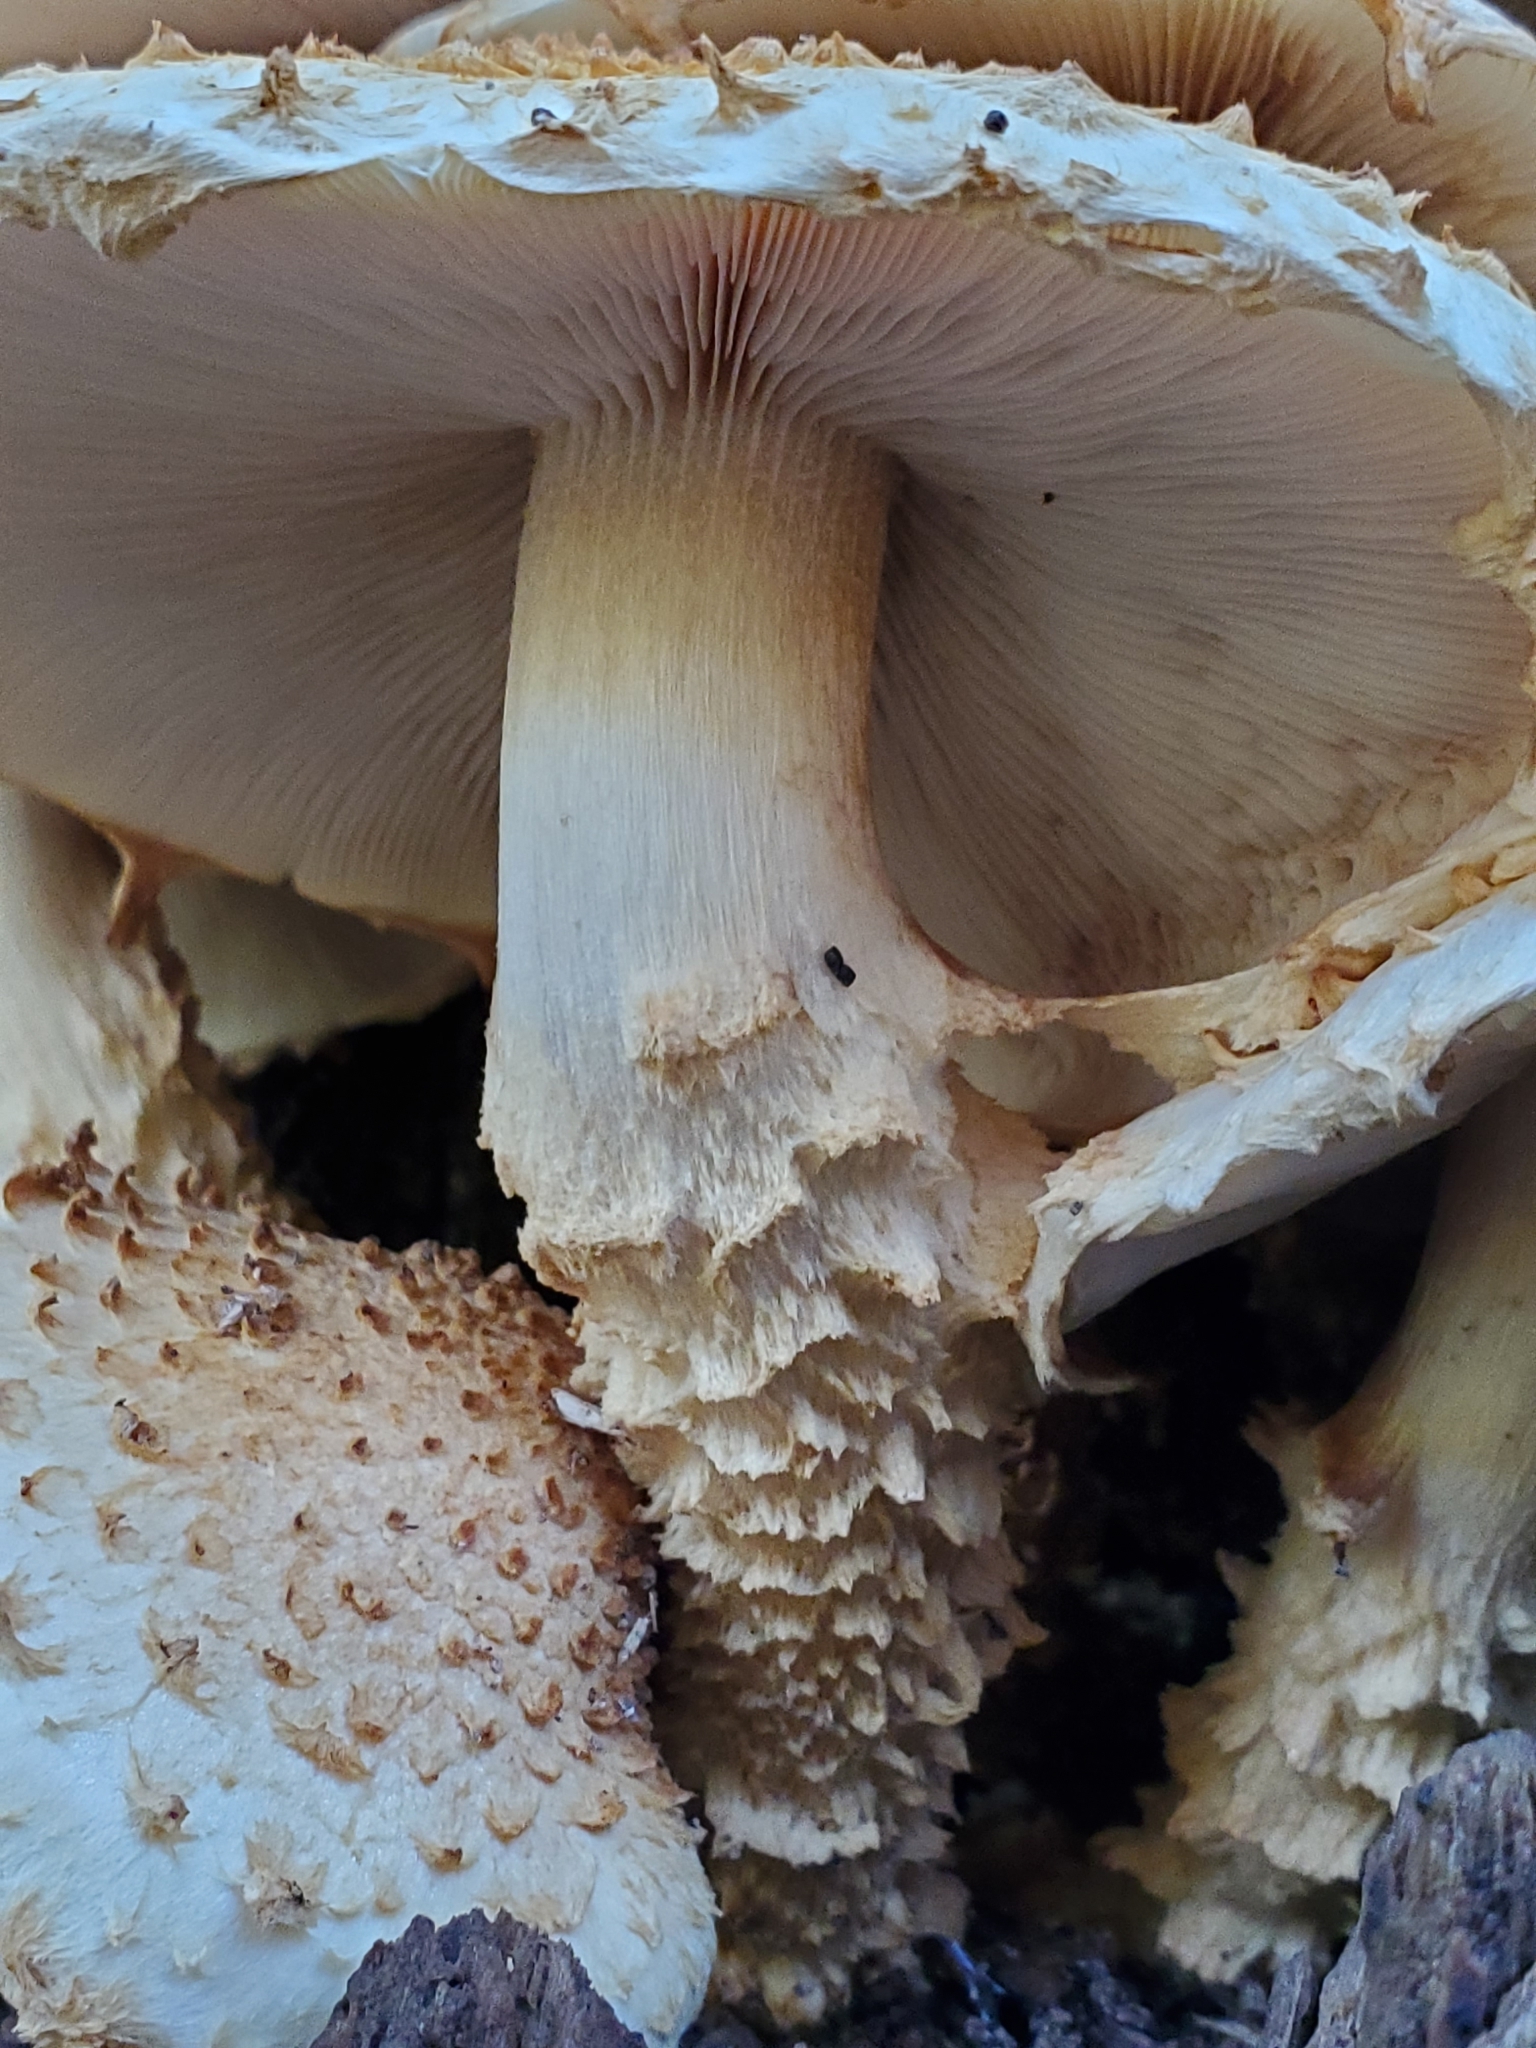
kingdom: Fungi
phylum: Basidiomycota
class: Agaricomycetes
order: Agaricales
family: Strophariaceae
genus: Pholiota
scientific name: Pholiota squarrosoides
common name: Sharp-scaly pholiota
